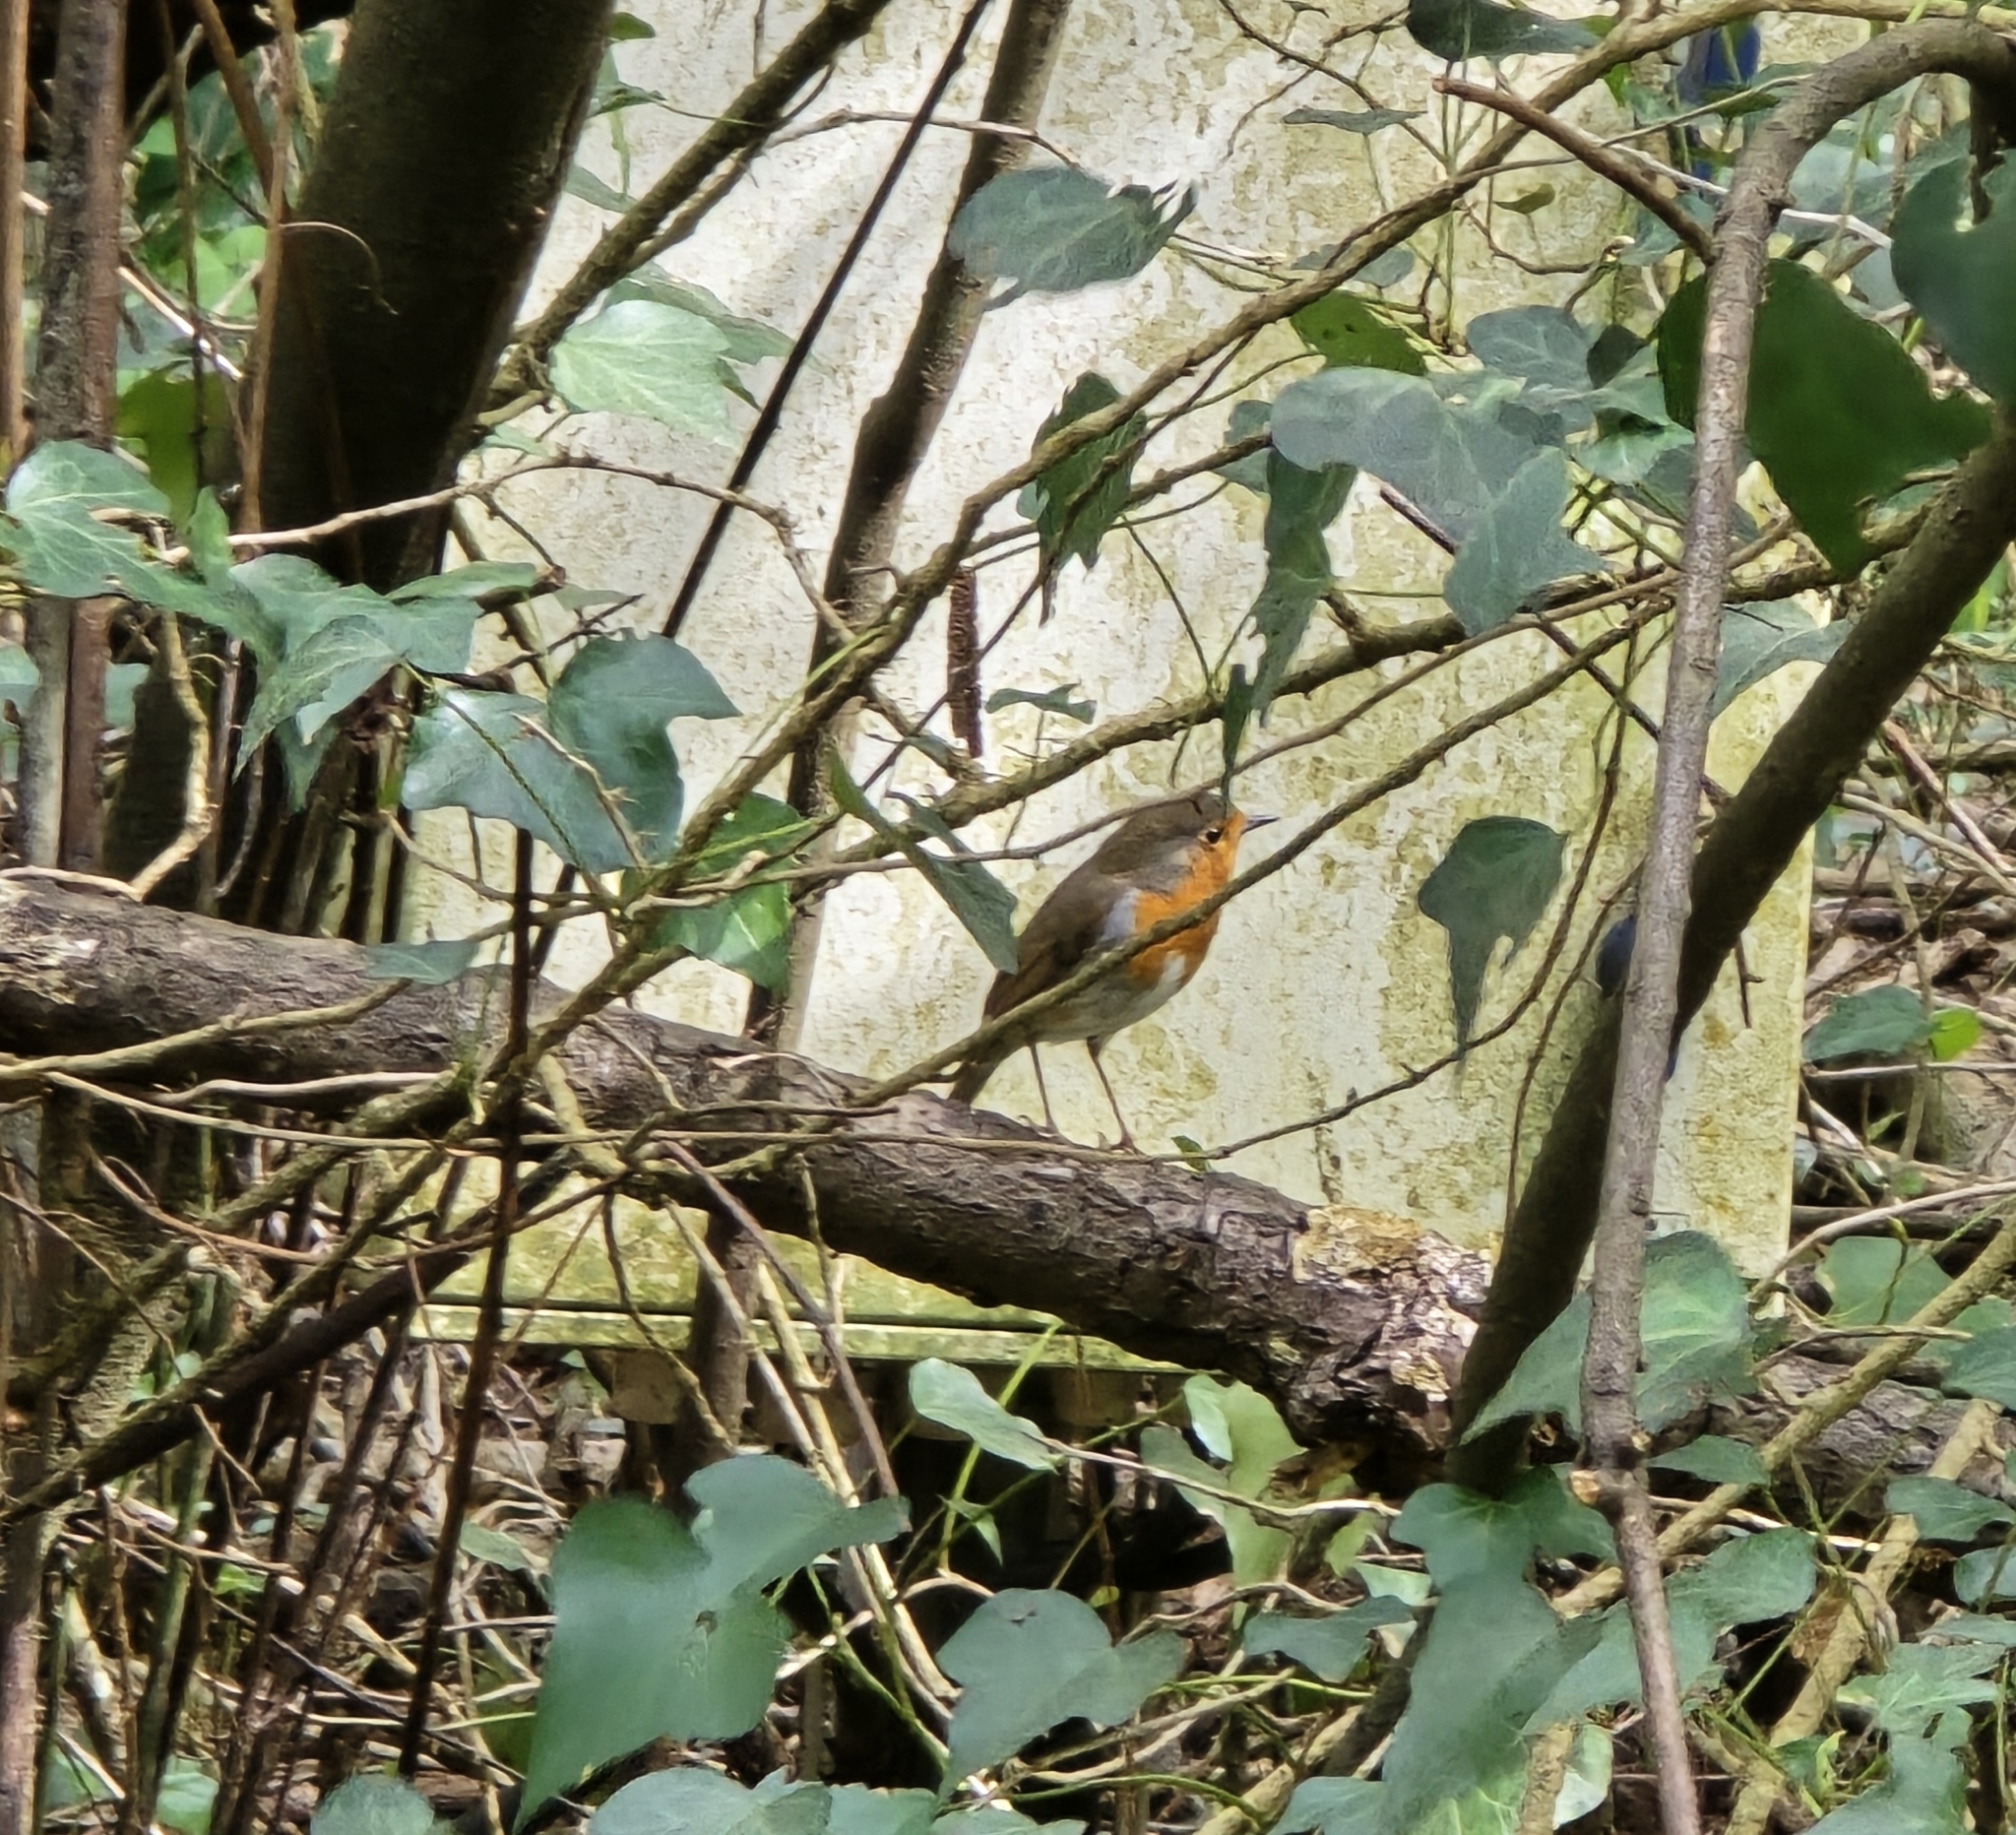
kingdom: Animalia
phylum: Chordata
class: Aves
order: Passeriformes
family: Muscicapidae
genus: Erithacus
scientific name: Erithacus rubecula
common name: European robin
